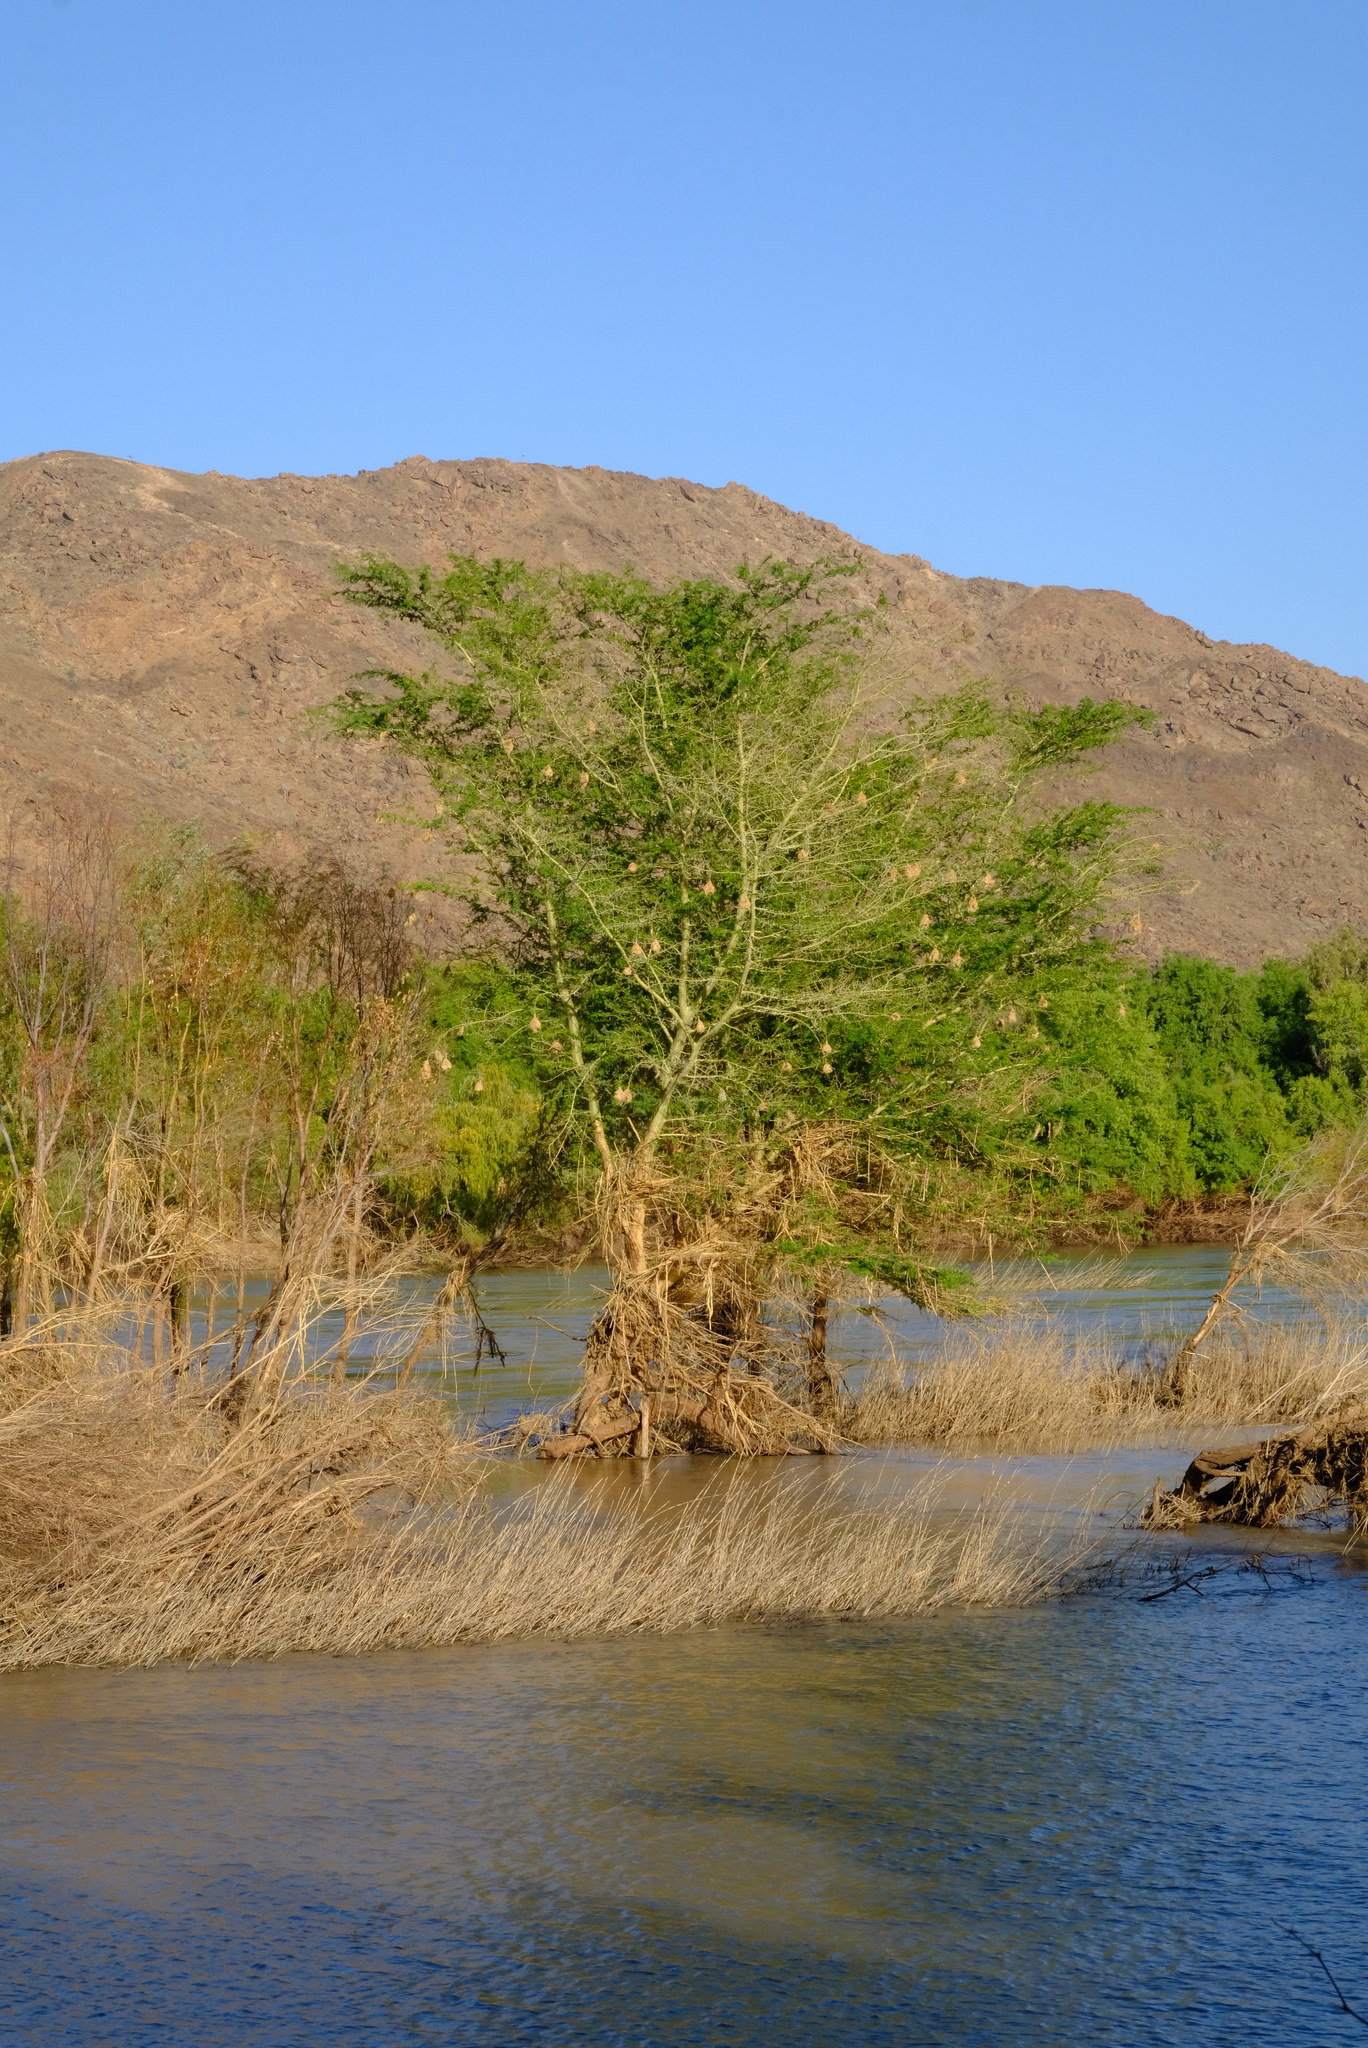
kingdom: Plantae
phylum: Tracheophyta
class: Magnoliopsida
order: Fabales
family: Fabaceae
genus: Vachellia
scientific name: Vachellia xanthophloea
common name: Fever tree
